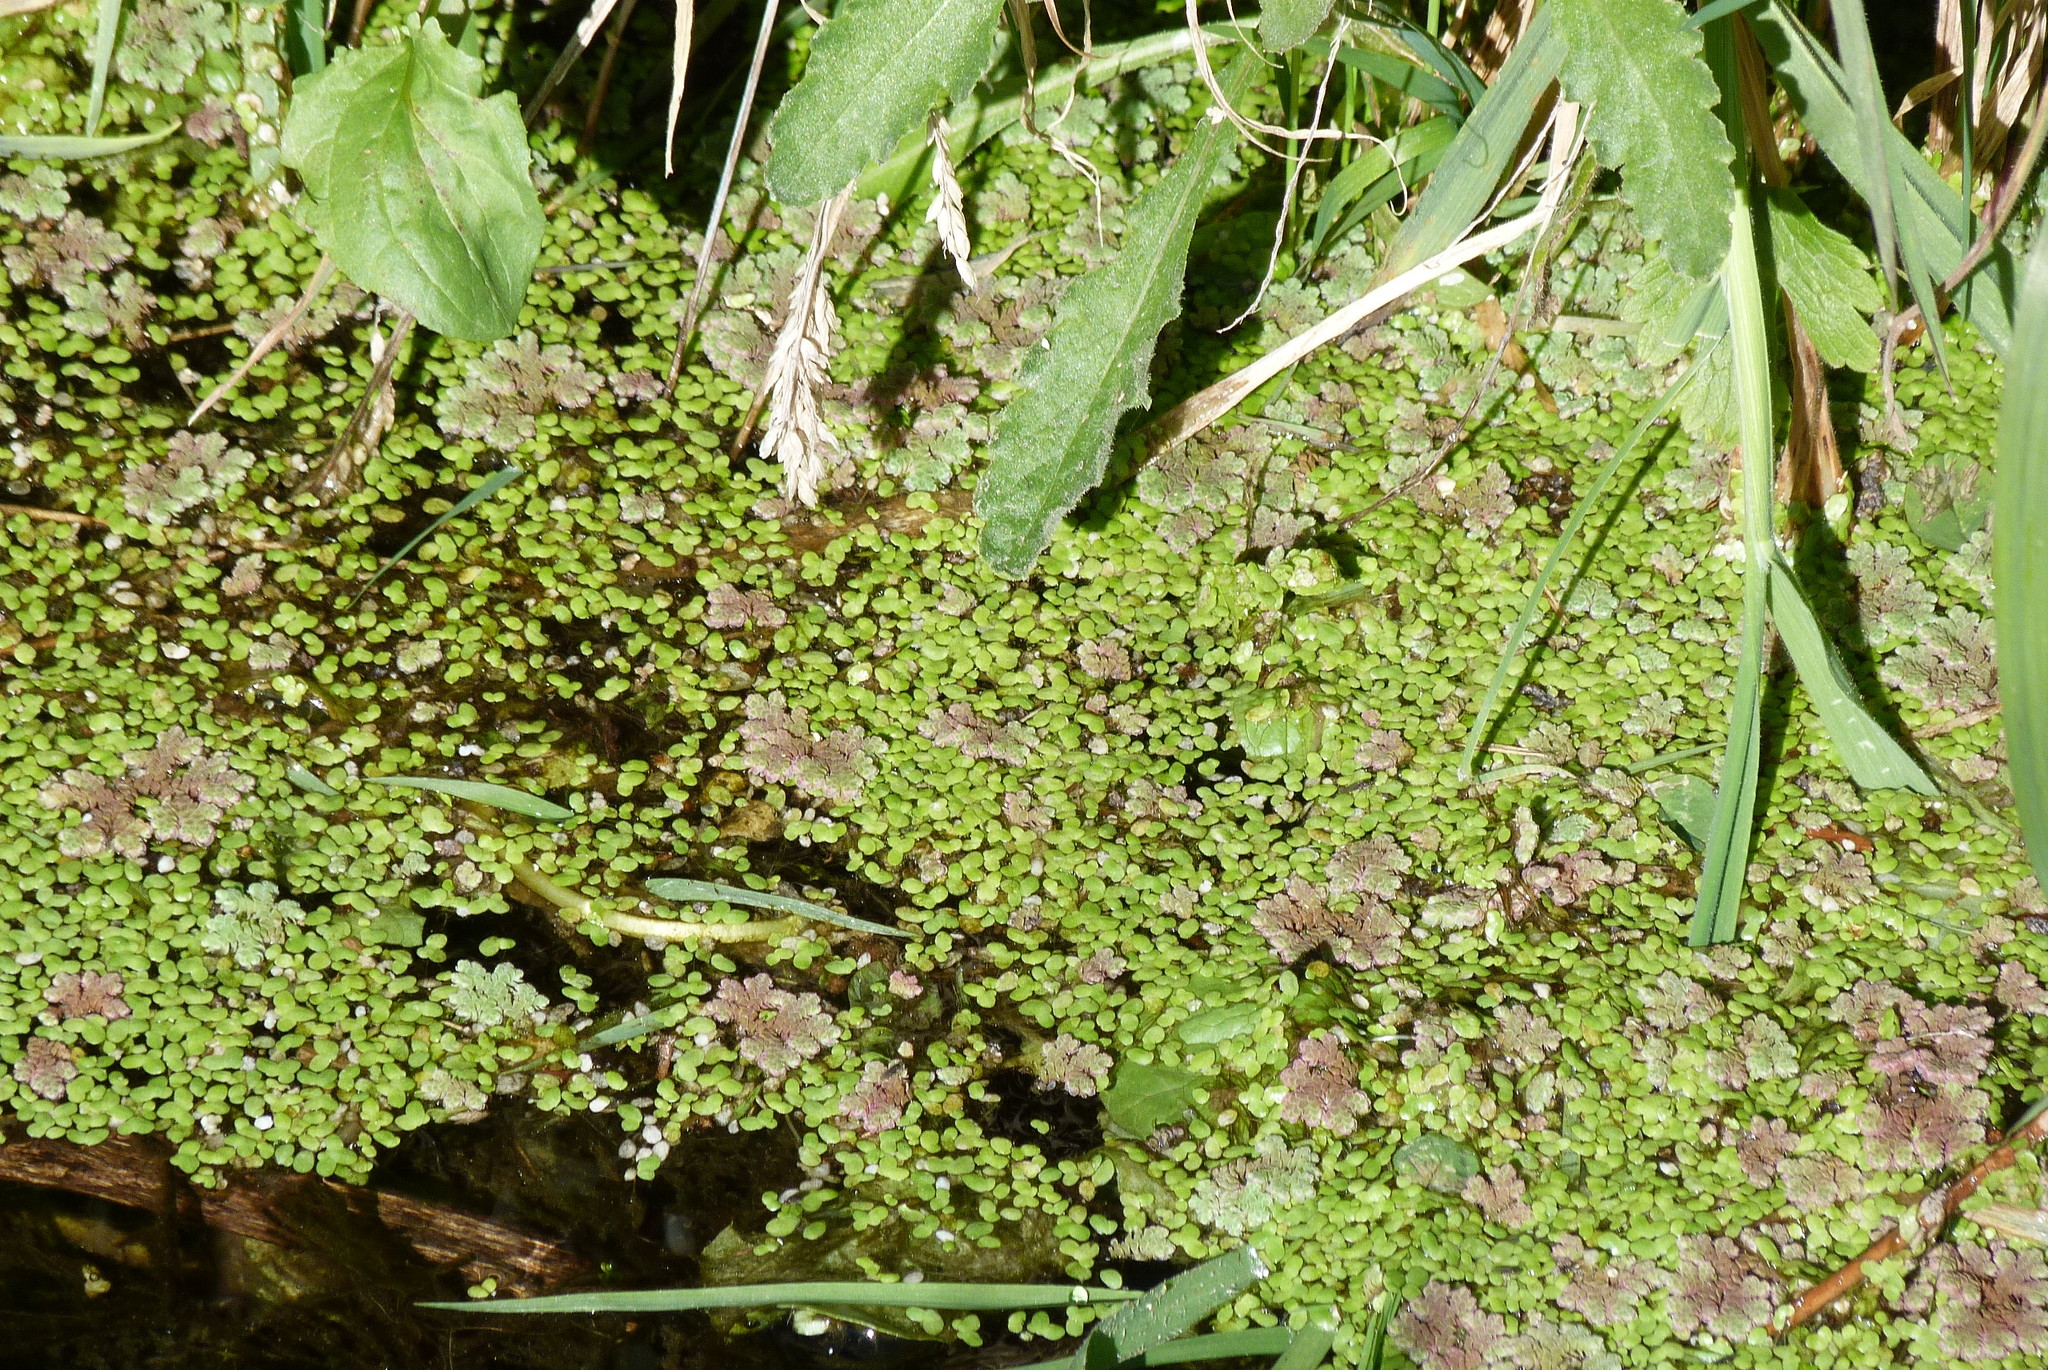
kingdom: Plantae
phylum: Tracheophyta
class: Polypodiopsida
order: Salviniales
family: Salviniaceae
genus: Azolla
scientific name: Azolla rubra
